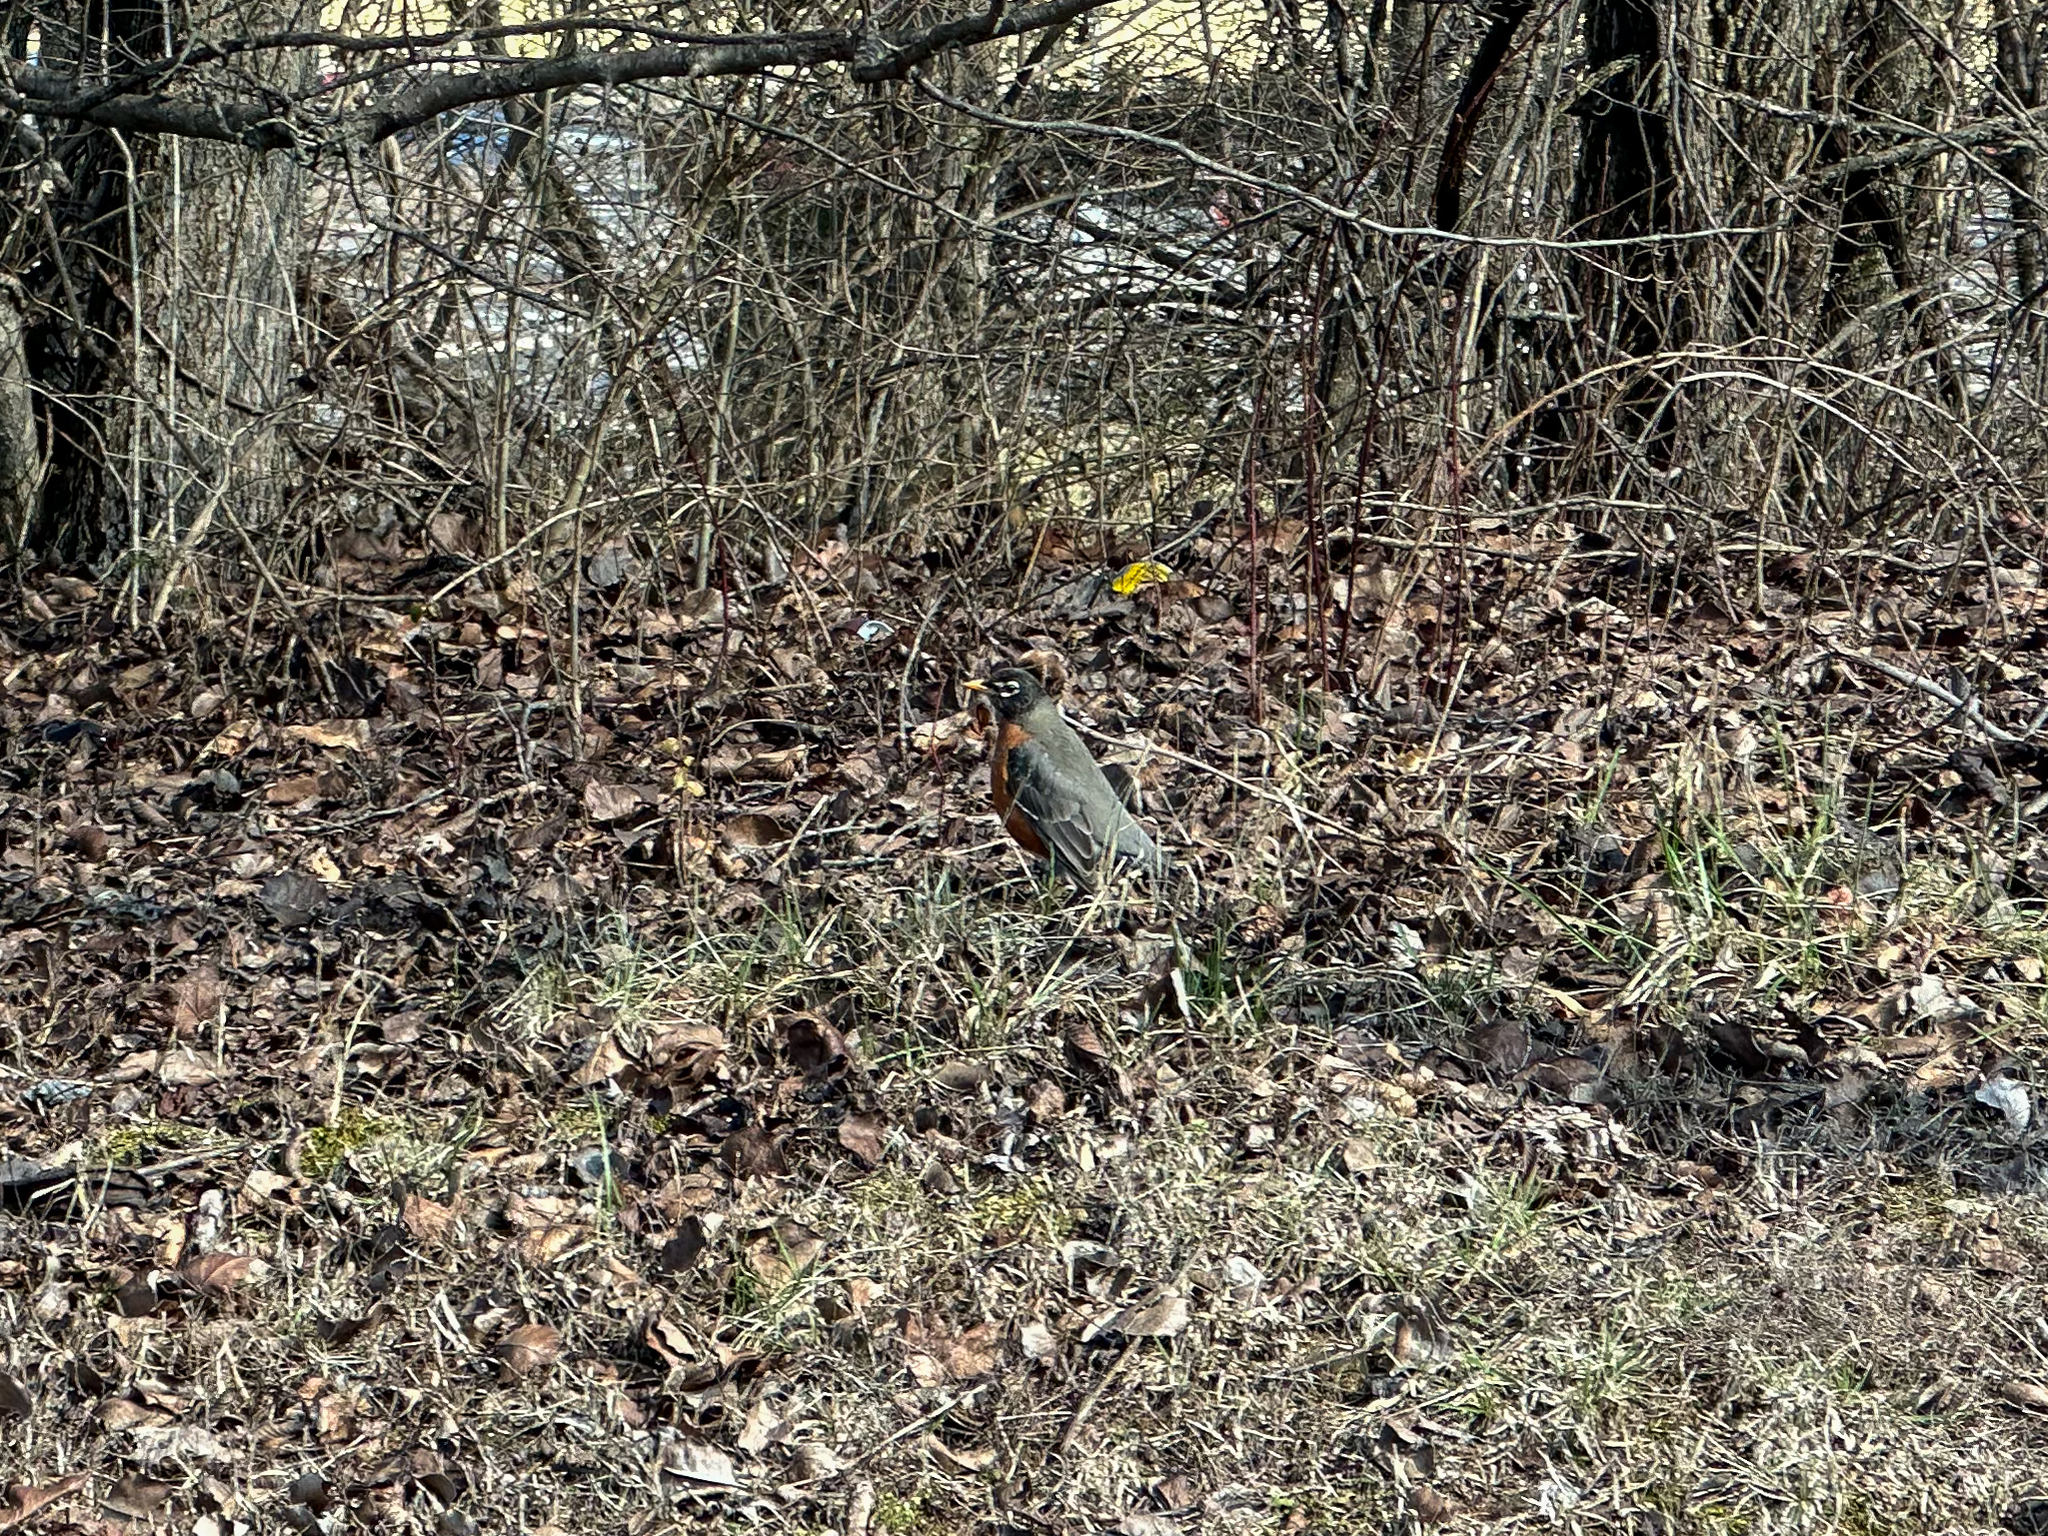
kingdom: Animalia
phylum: Chordata
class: Aves
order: Passeriformes
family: Turdidae
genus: Turdus
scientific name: Turdus migratorius
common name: American robin
